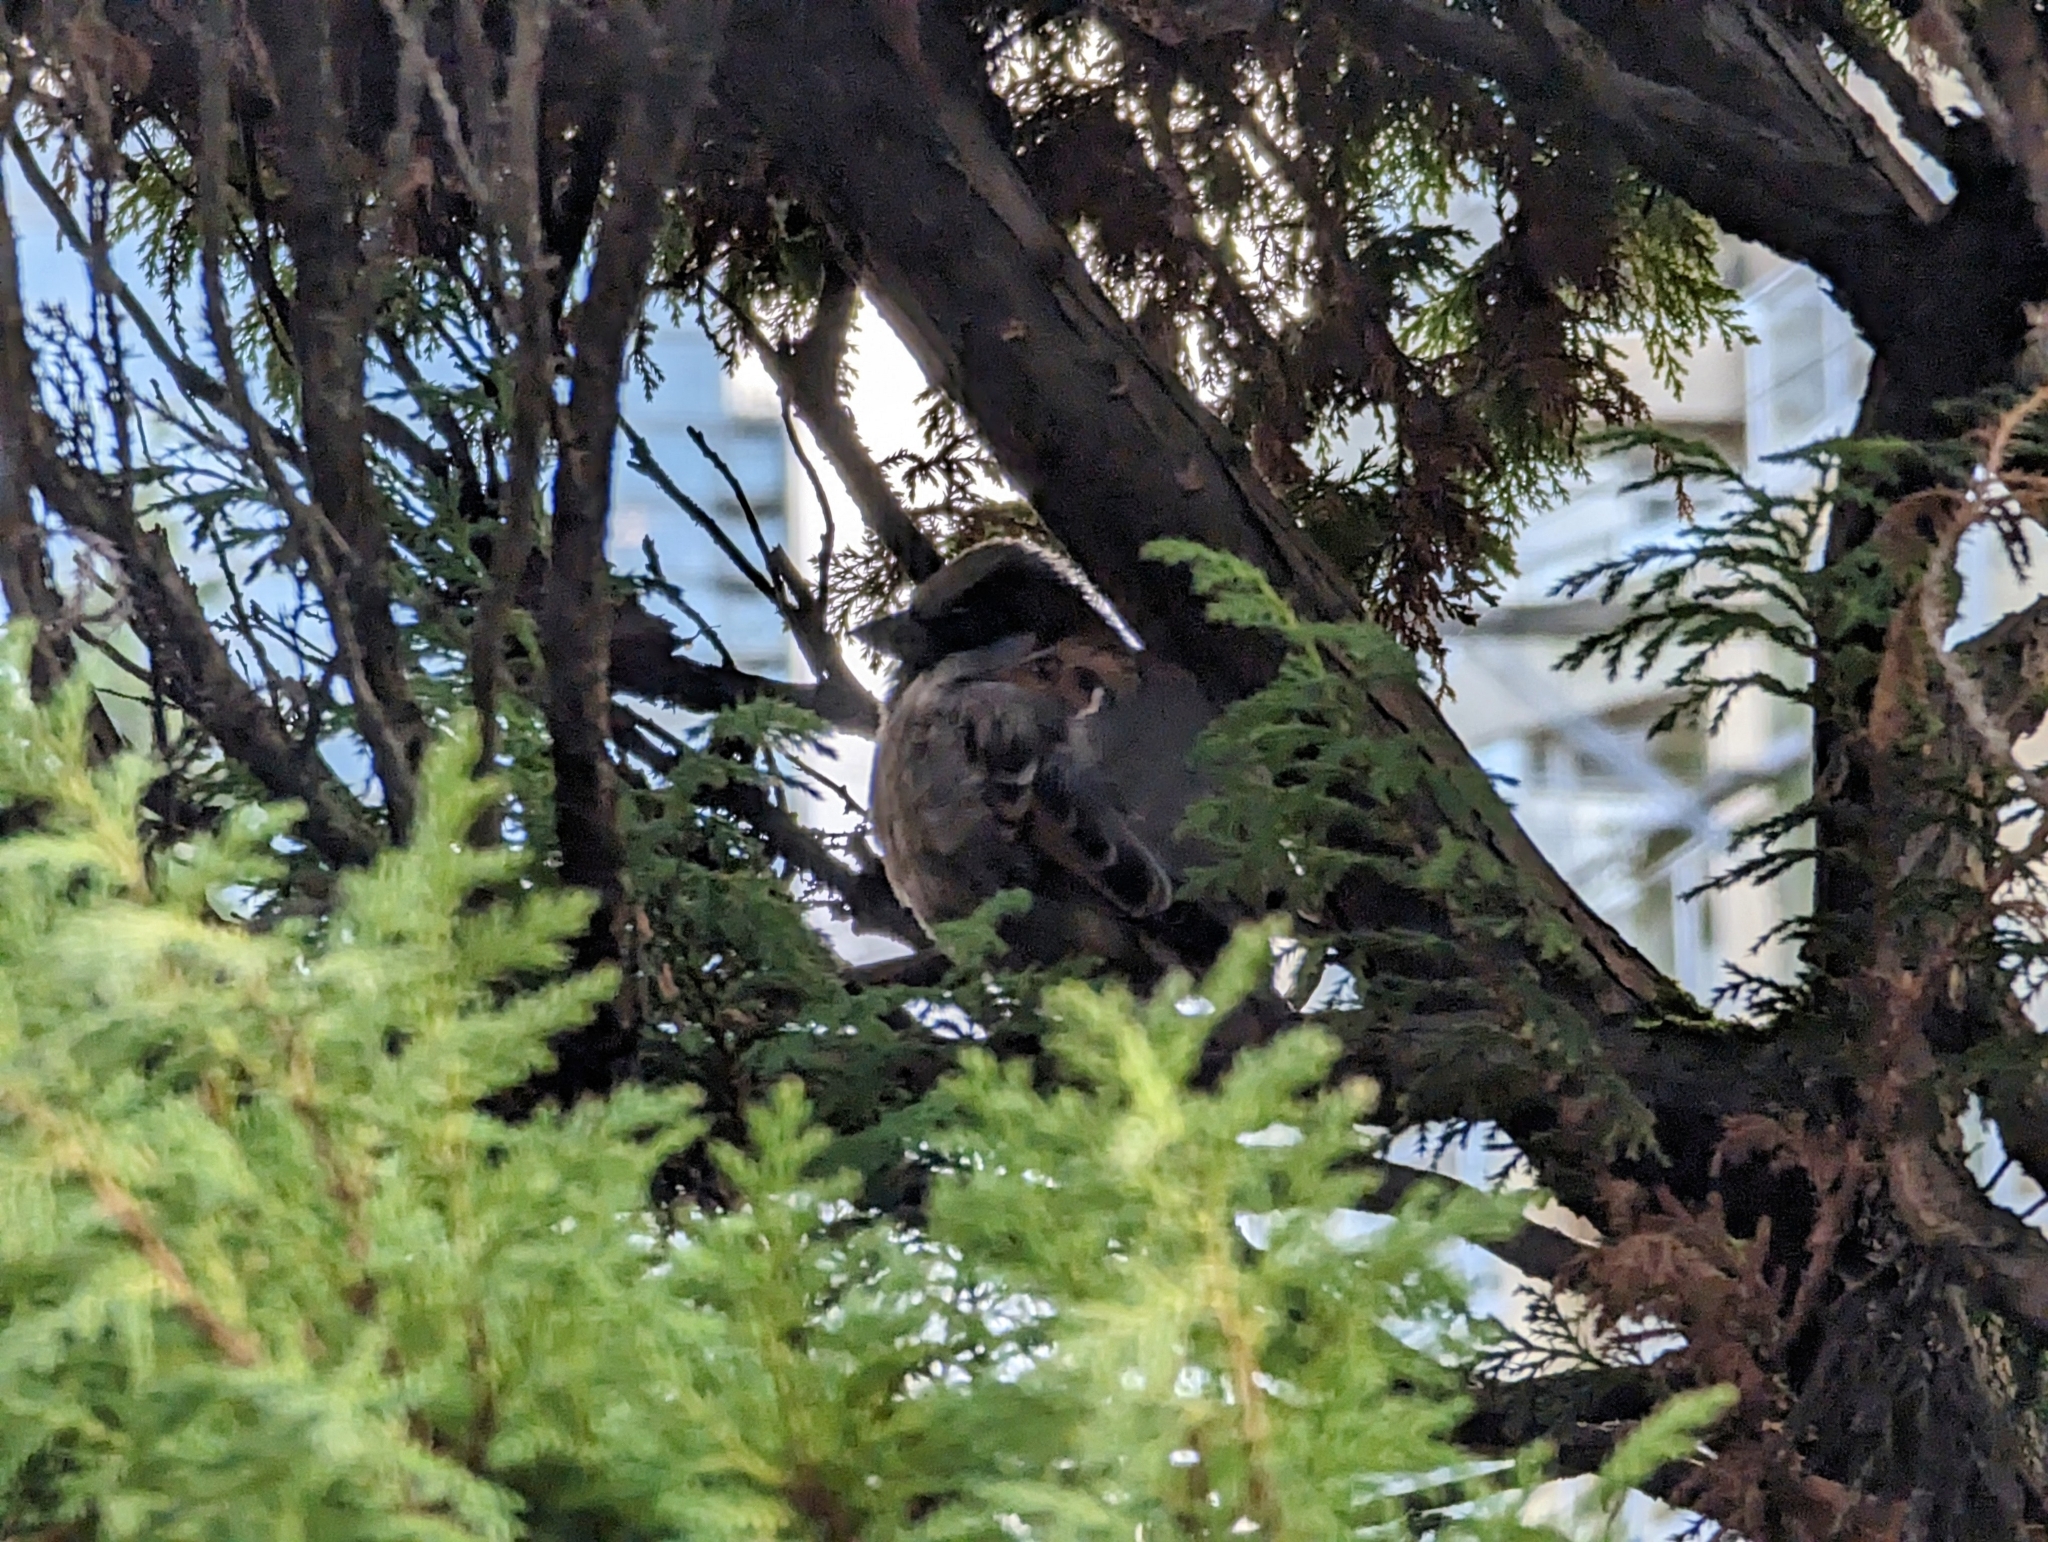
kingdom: Animalia
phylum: Chordata
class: Aves
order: Passeriformes
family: Passeridae
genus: Passer
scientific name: Passer domesticus
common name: House sparrow
